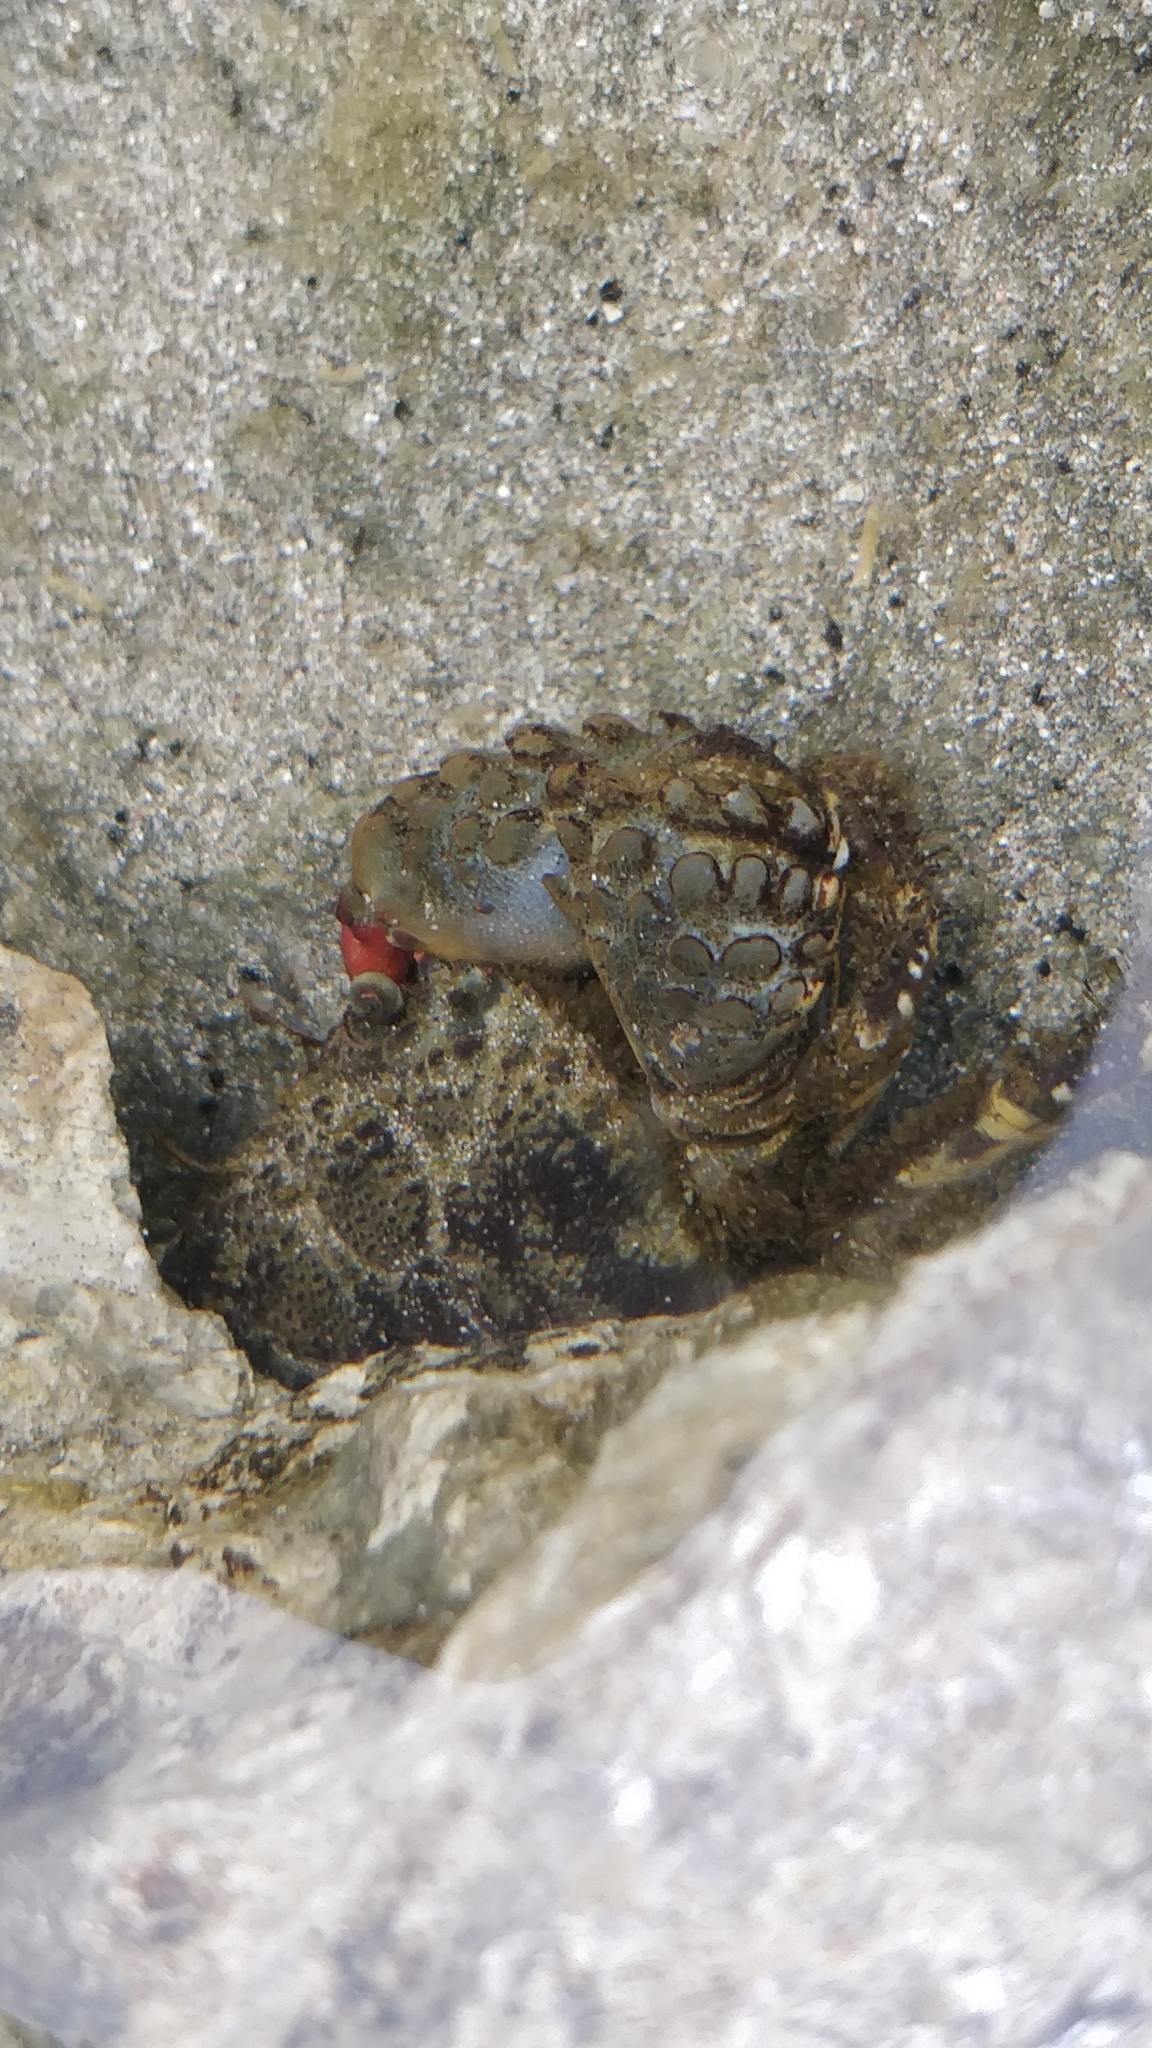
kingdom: Animalia
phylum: Arthropoda
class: Malacostraca
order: Decapoda
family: Eriphiidae
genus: Eriphia
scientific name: Eriphia squamata
